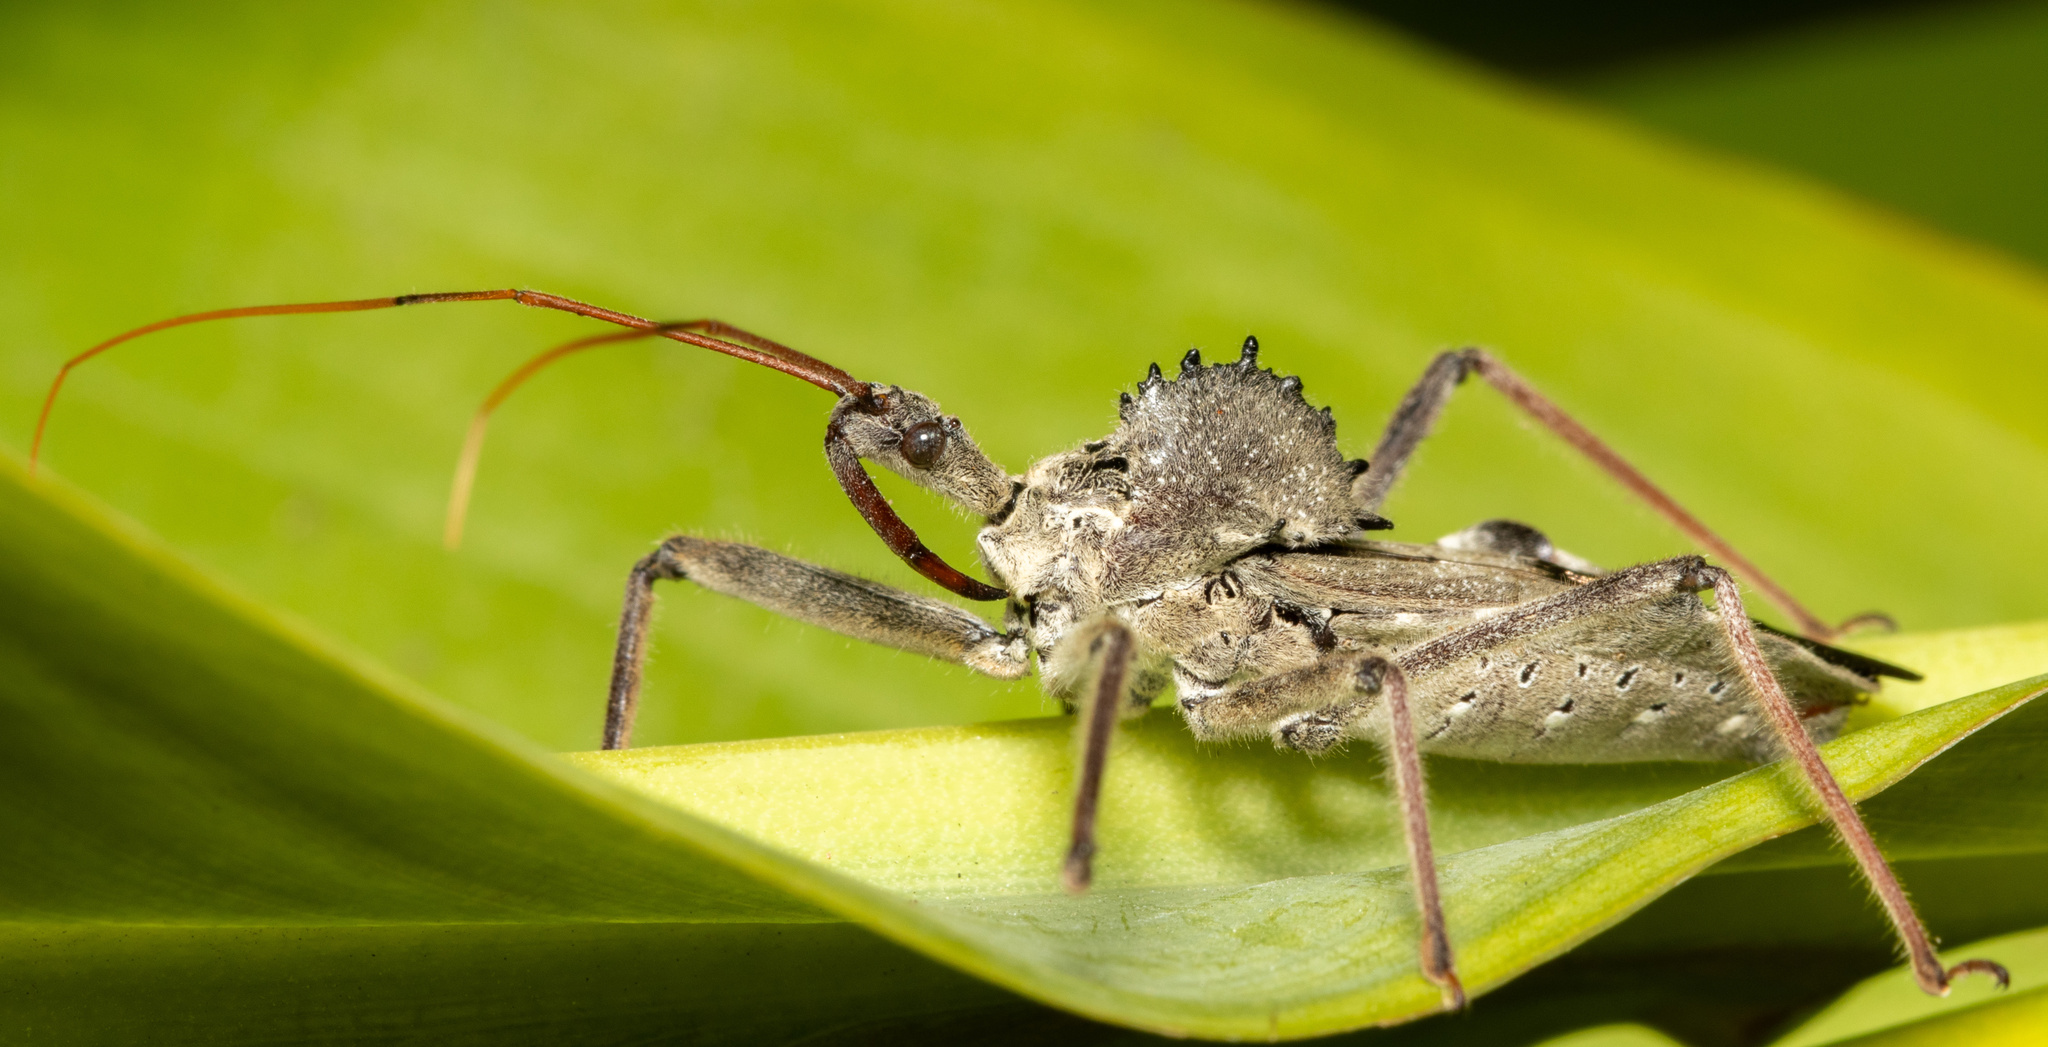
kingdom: Animalia
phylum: Arthropoda
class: Insecta
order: Hemiptera
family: Reduviidae
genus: Arilus
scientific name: Arilus cristatus
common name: North american wheel bug
